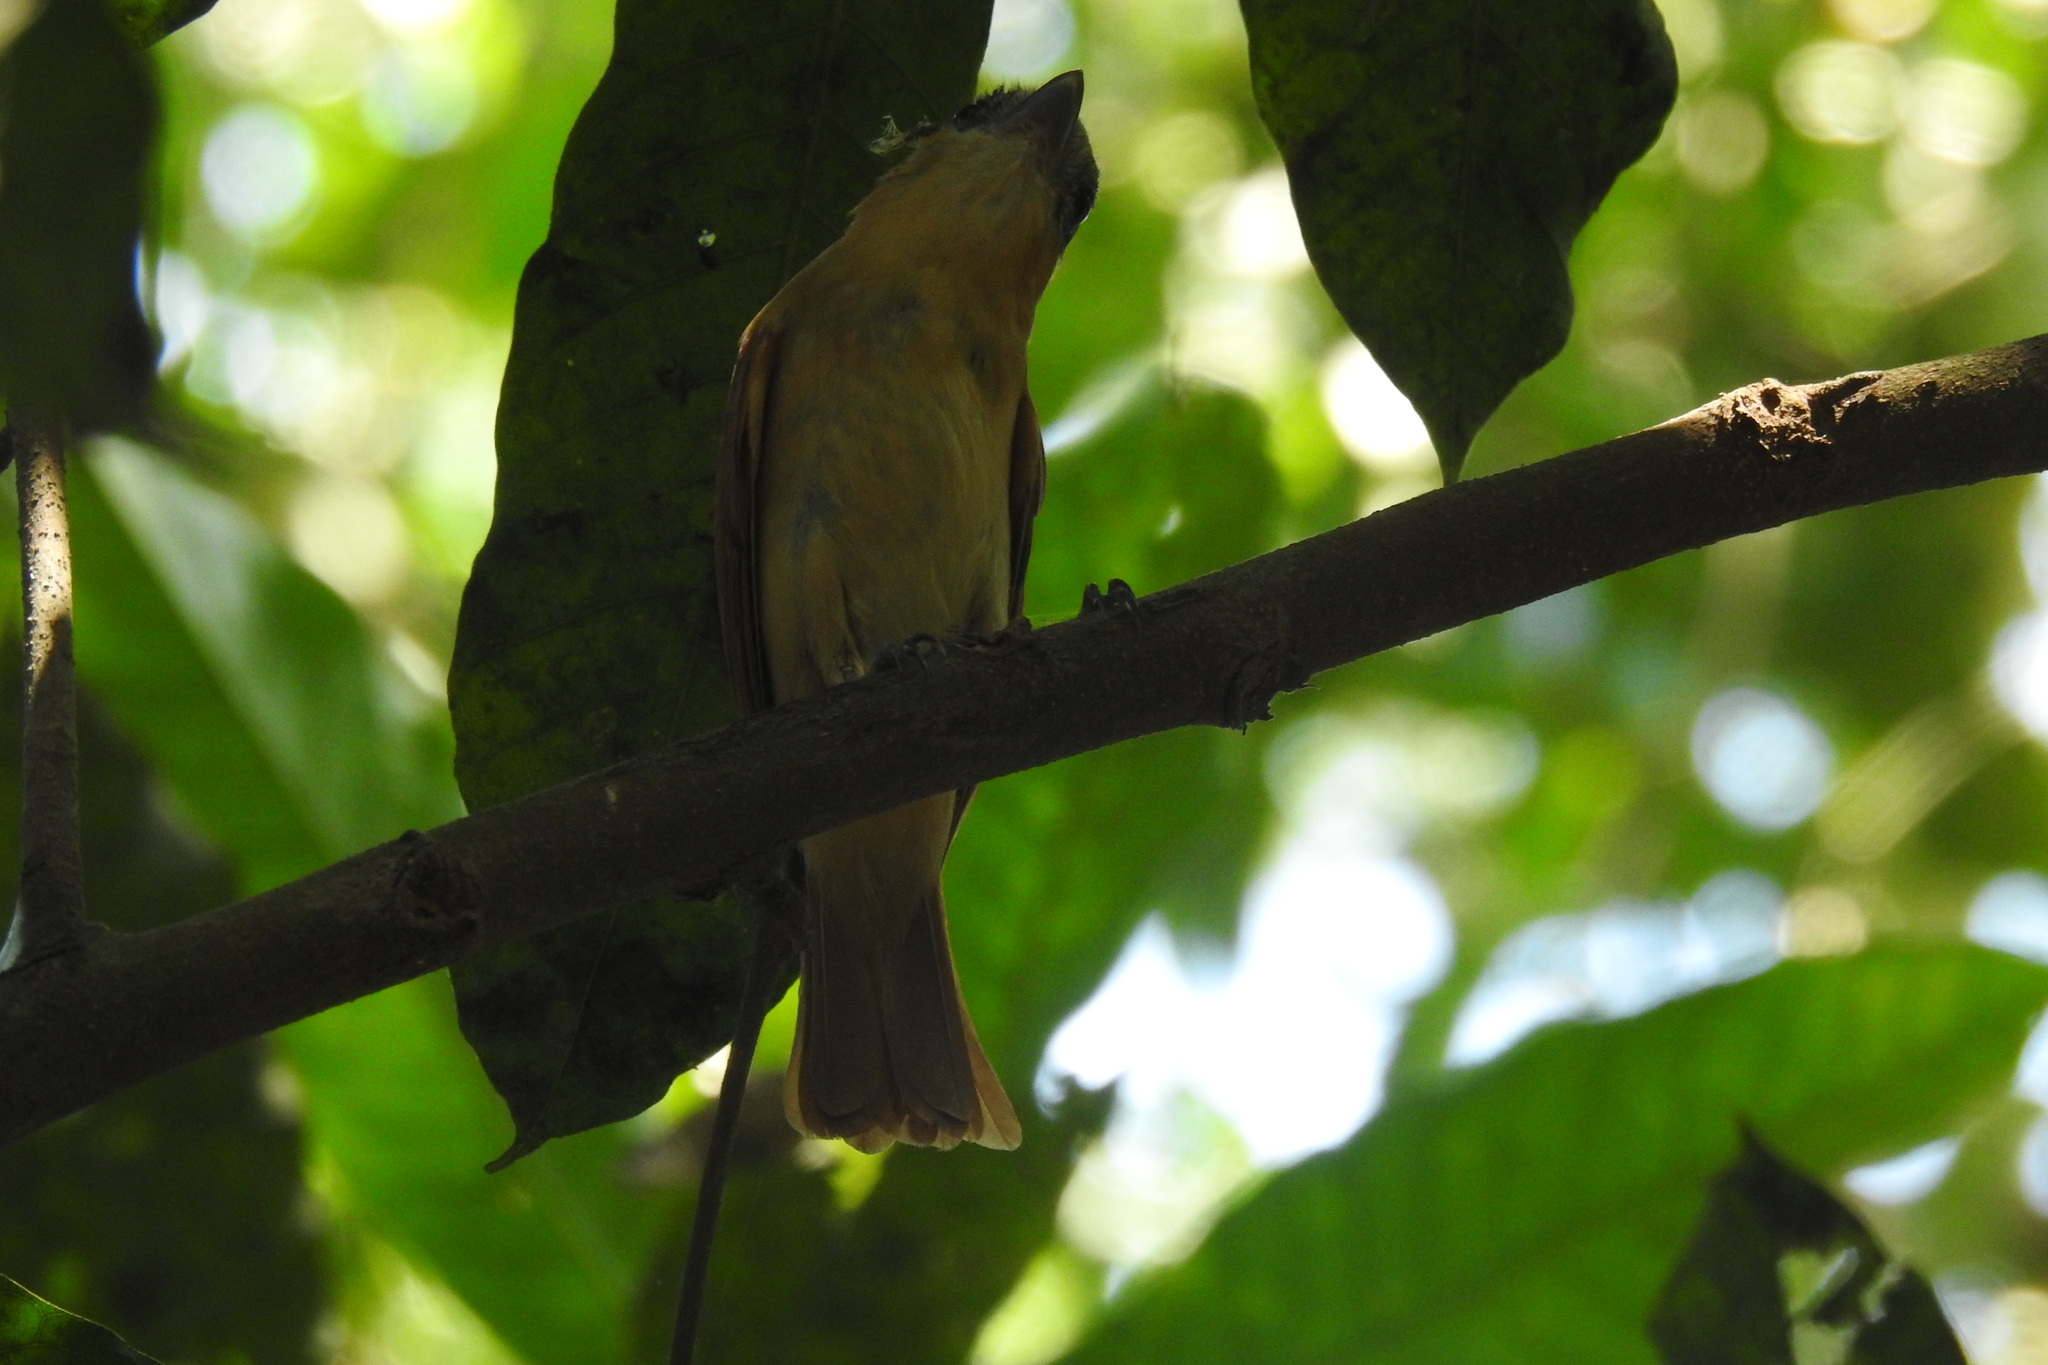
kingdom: Animalia
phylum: Chordata
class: Aves
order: Passeriformes
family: Cotingidae
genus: Pachyramphus
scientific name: Pachyramphus aglaiae
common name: Rose-throated becard
